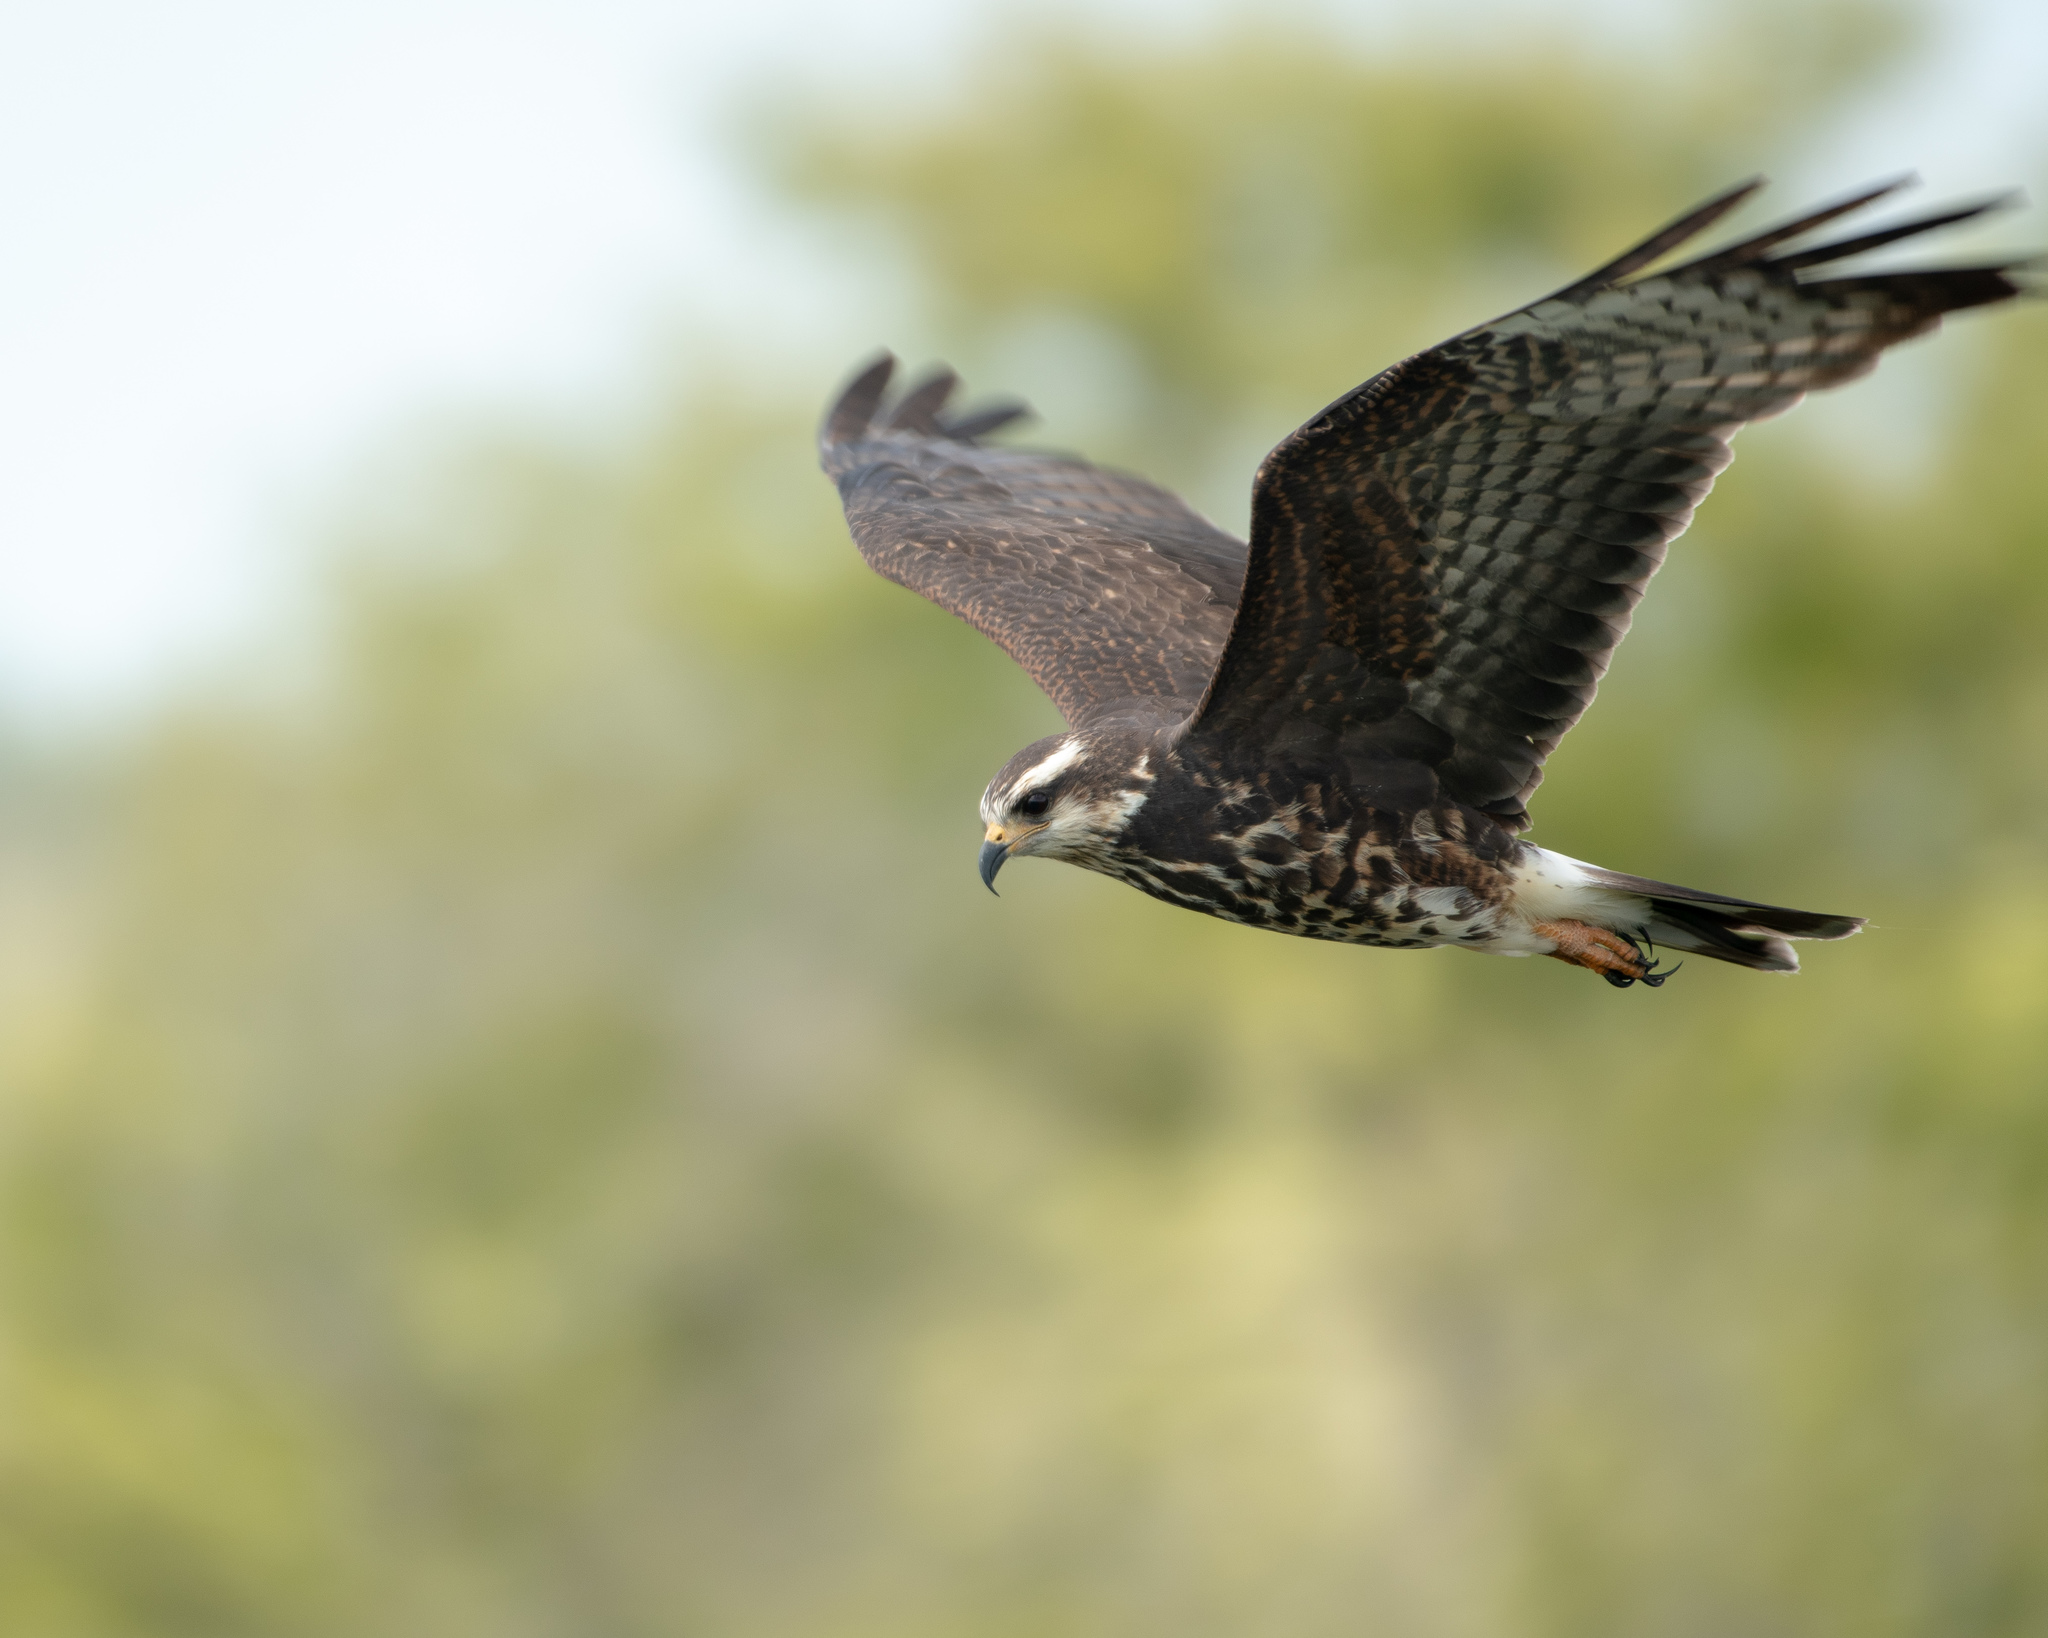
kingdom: Animalia
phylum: Chordata
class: Aves
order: Accipitriformes
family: Accipitridae
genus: Rostrhamus
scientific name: Rostrhamus sociabilis
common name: Snail kite
